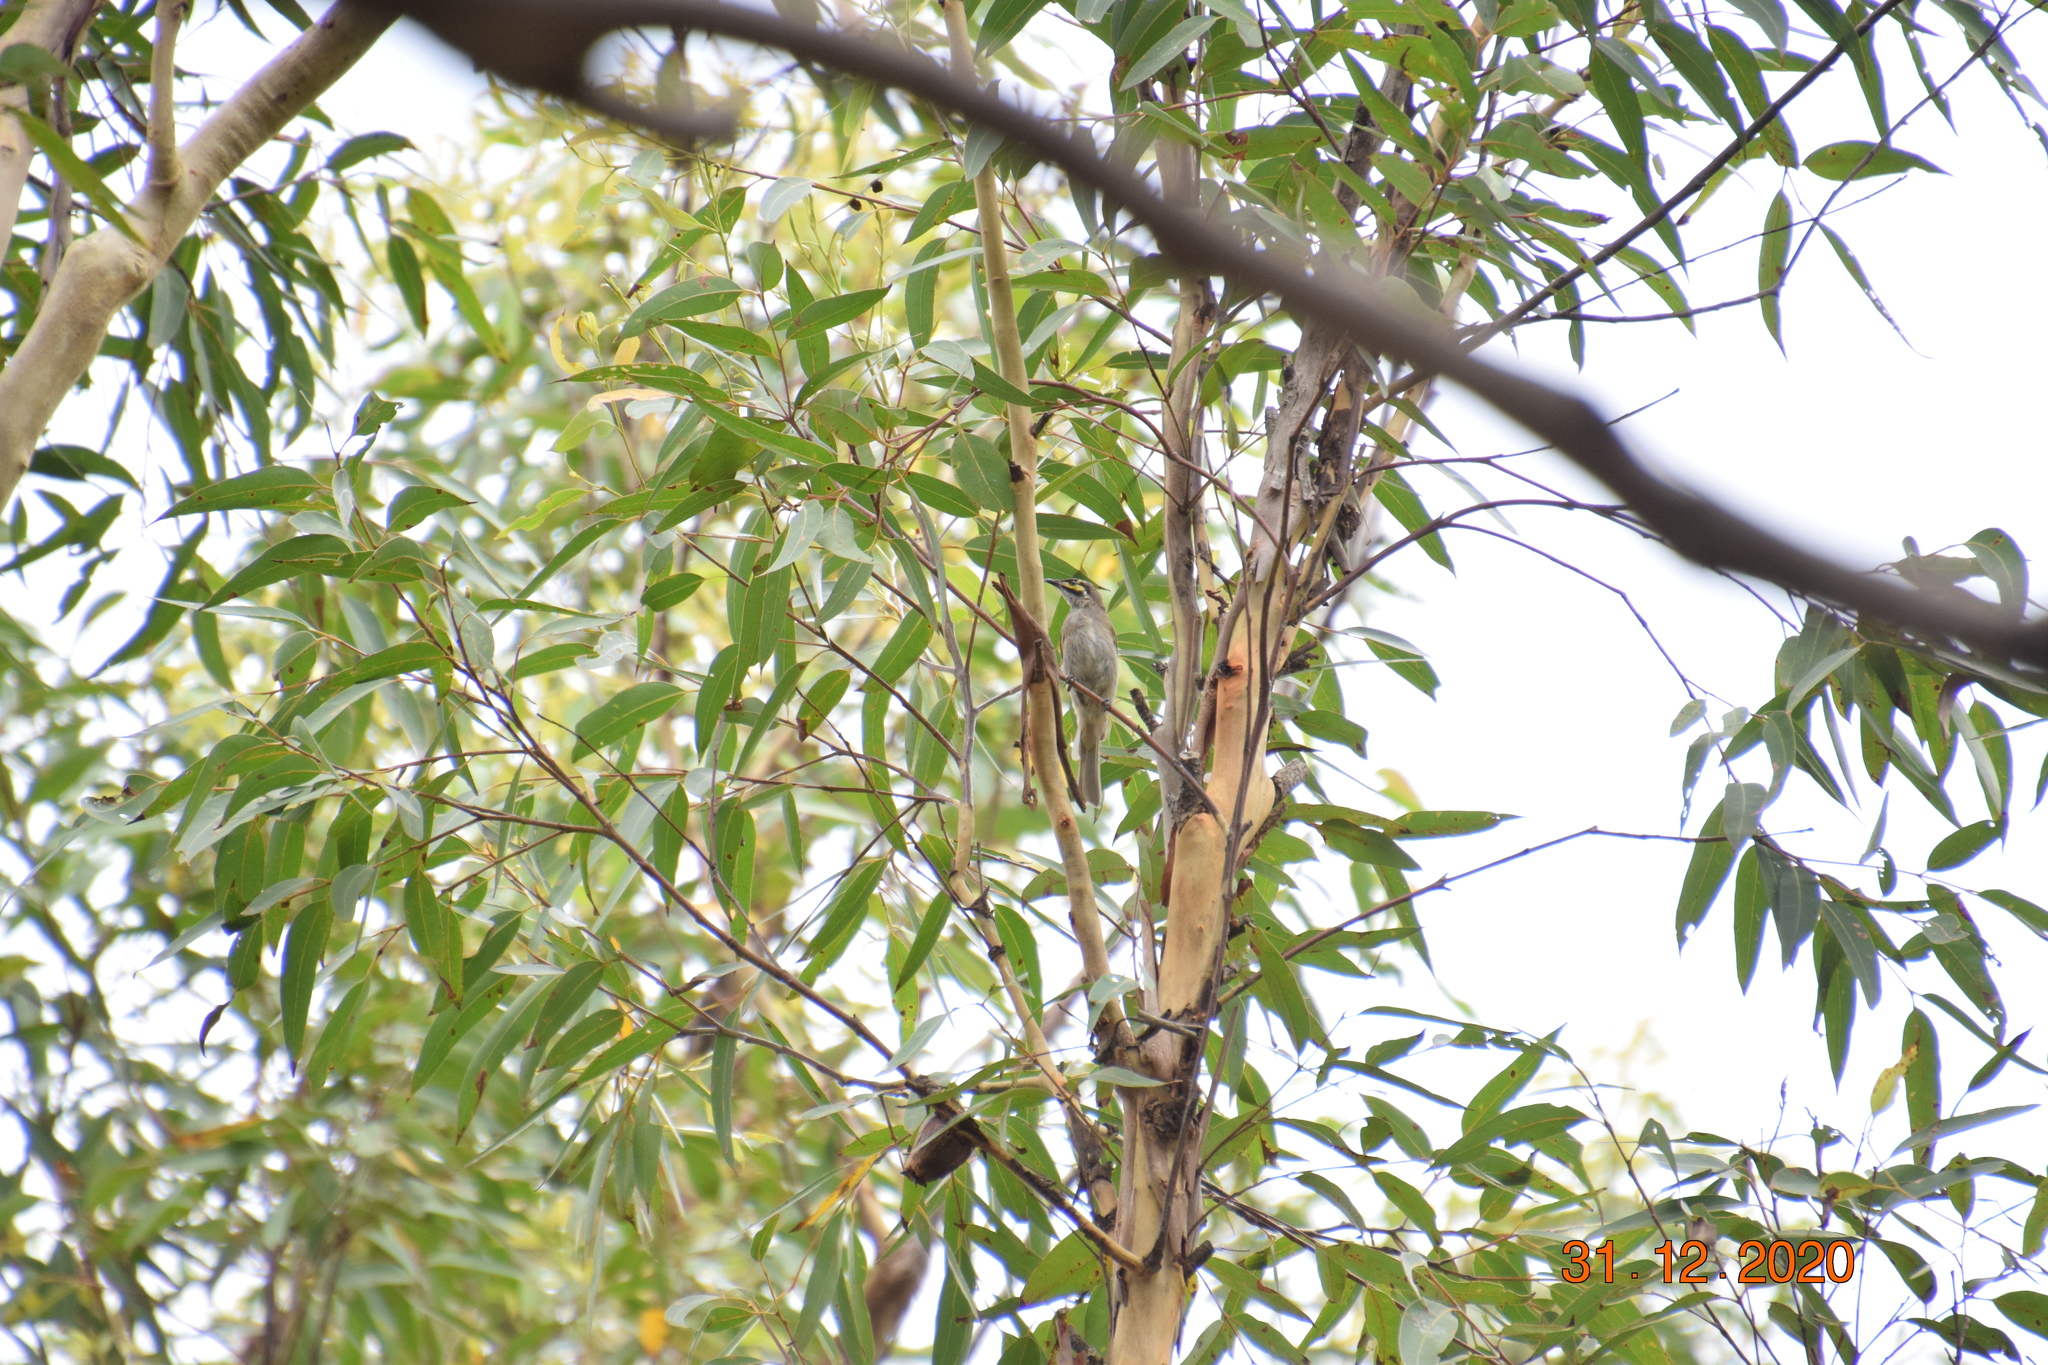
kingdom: Animalia
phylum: Chordata
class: Aves
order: Passeriformes
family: Meliphagidae
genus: Caligavis
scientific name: Caligavis chrysops
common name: Yellow-faced honeyeater
